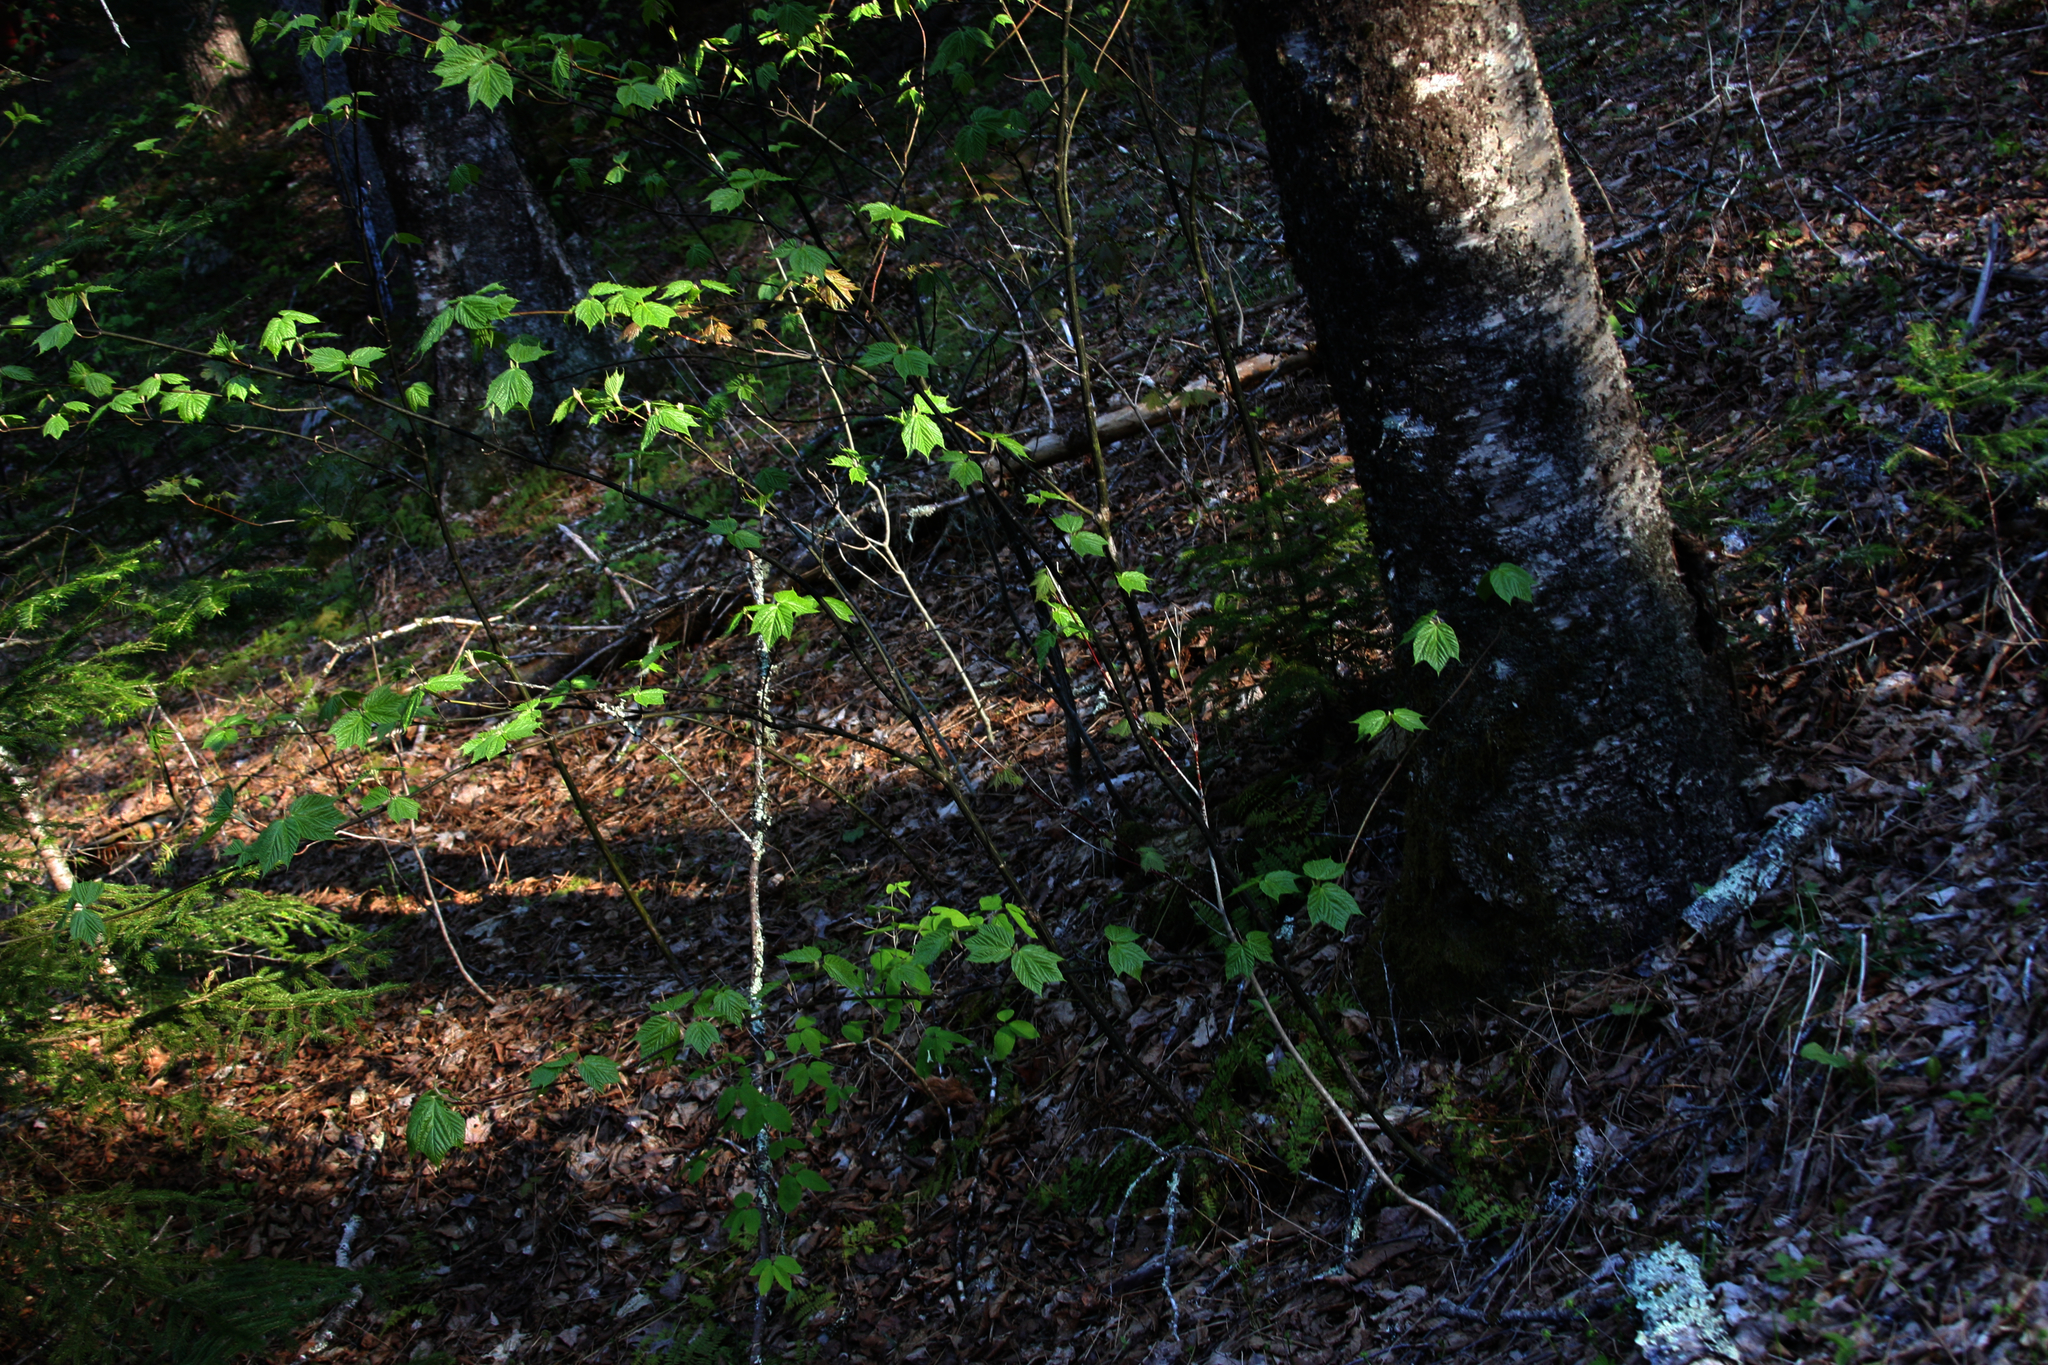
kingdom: Plantae
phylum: Tracheophyta
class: Magnoliopsida
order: Sapindales
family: Sapindaceae
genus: Acer
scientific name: Acer pensylvanicum
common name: Moosewood
